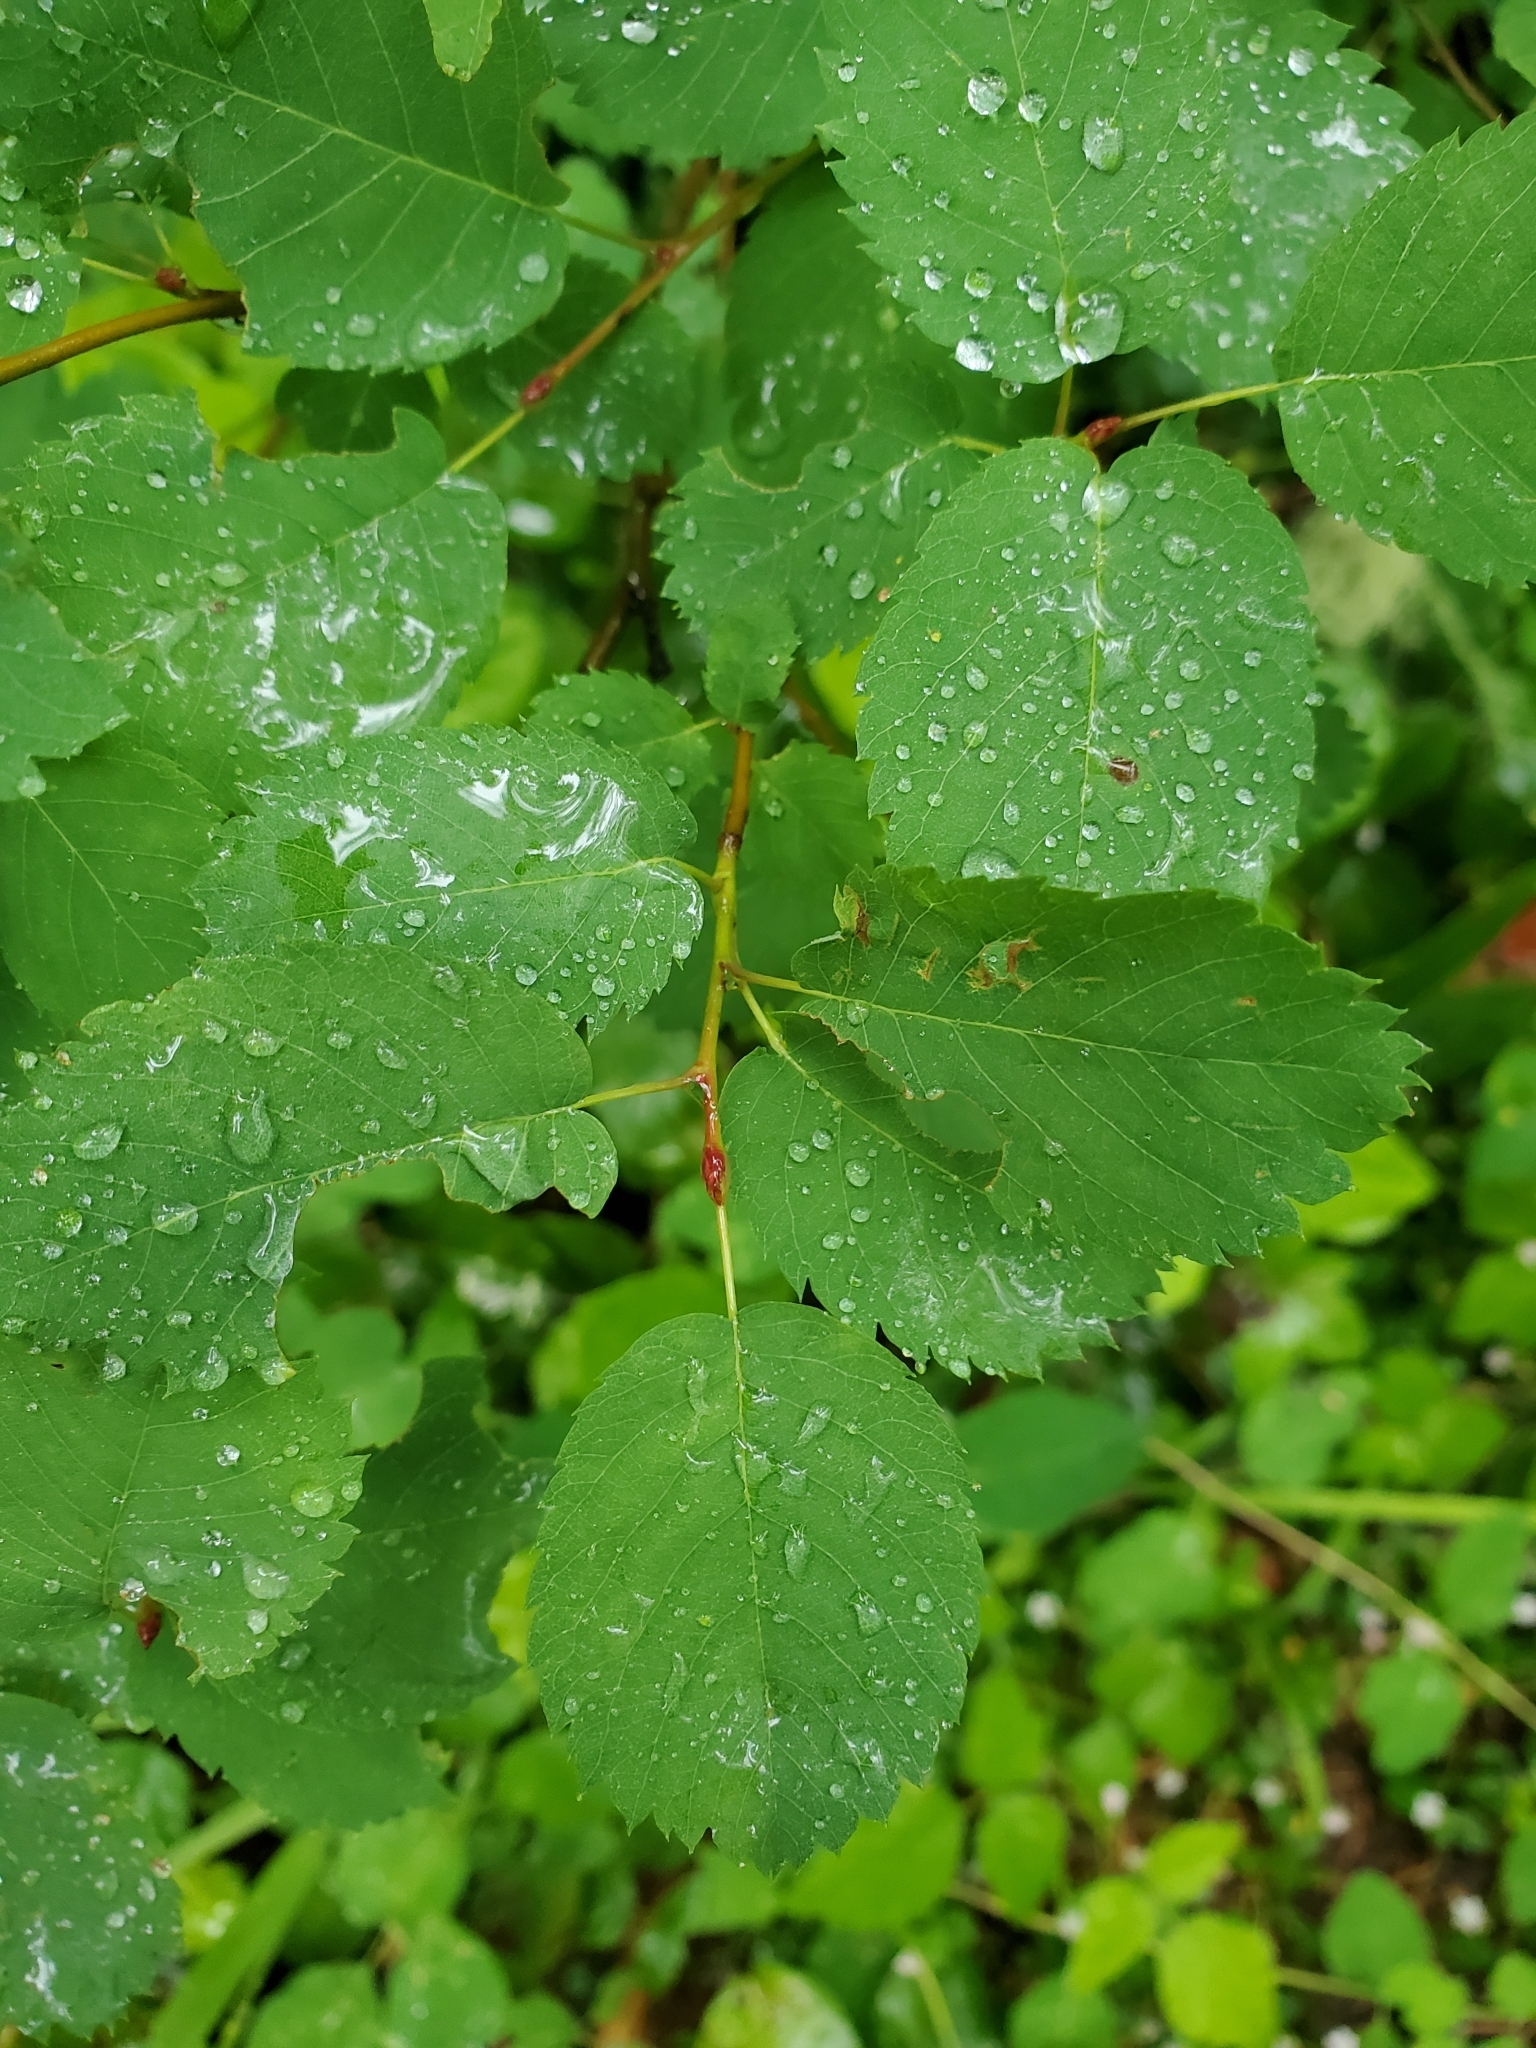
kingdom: Plantae
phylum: Tracheophyta
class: Magnoliopsida
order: Rosales
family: Rosaceae
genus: Amelanchier
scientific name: Amelanchier alnifolia
